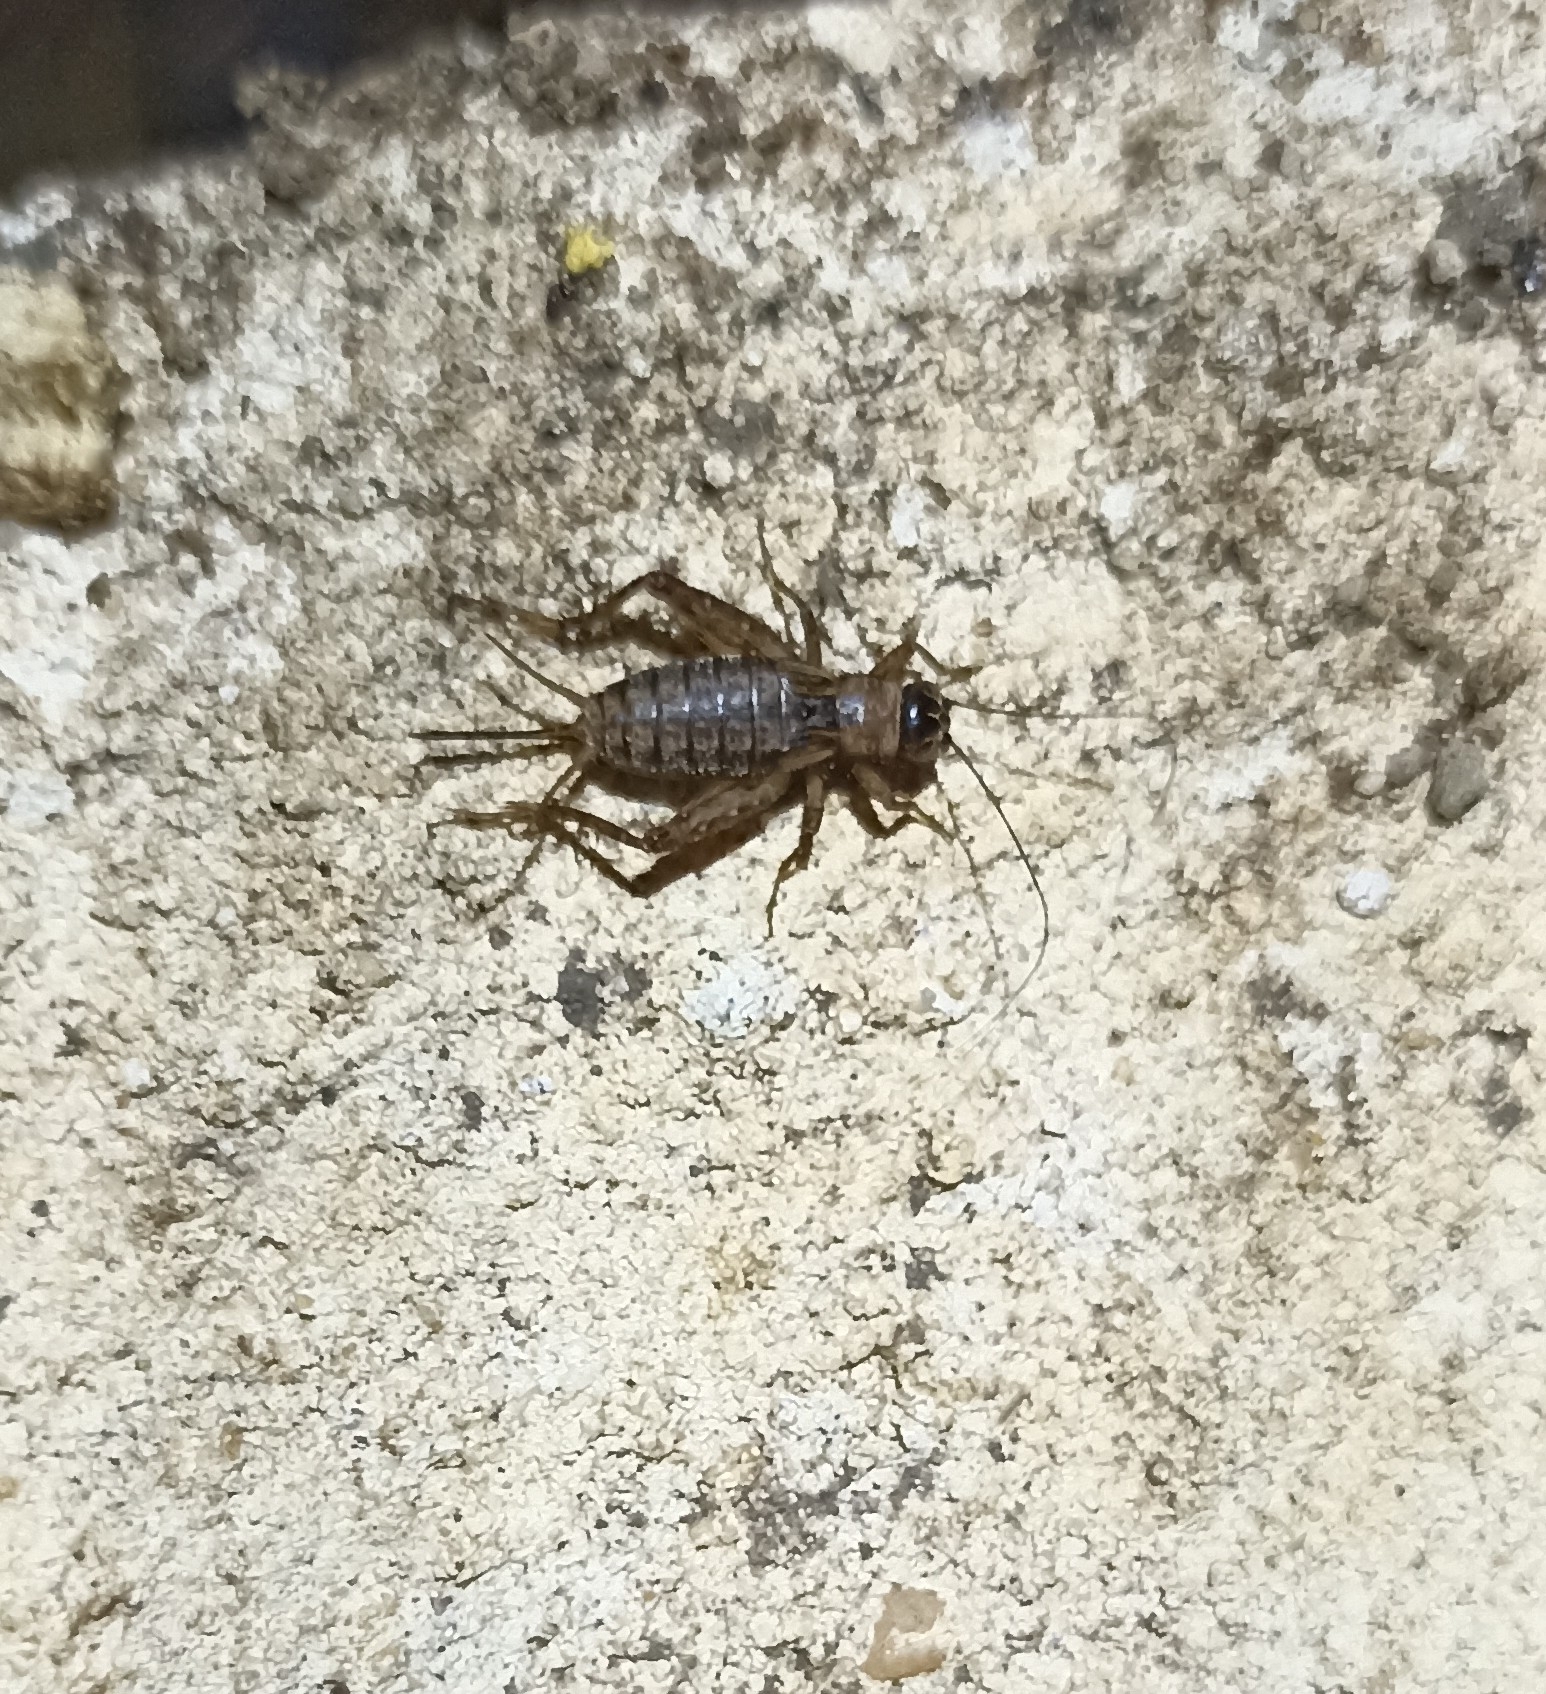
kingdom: Animalia
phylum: Arthropoda
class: Insecta
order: Orthoptera
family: Trigonidiidae
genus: Nemobius
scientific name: Nemobius sylvestris
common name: Wood-cricket
